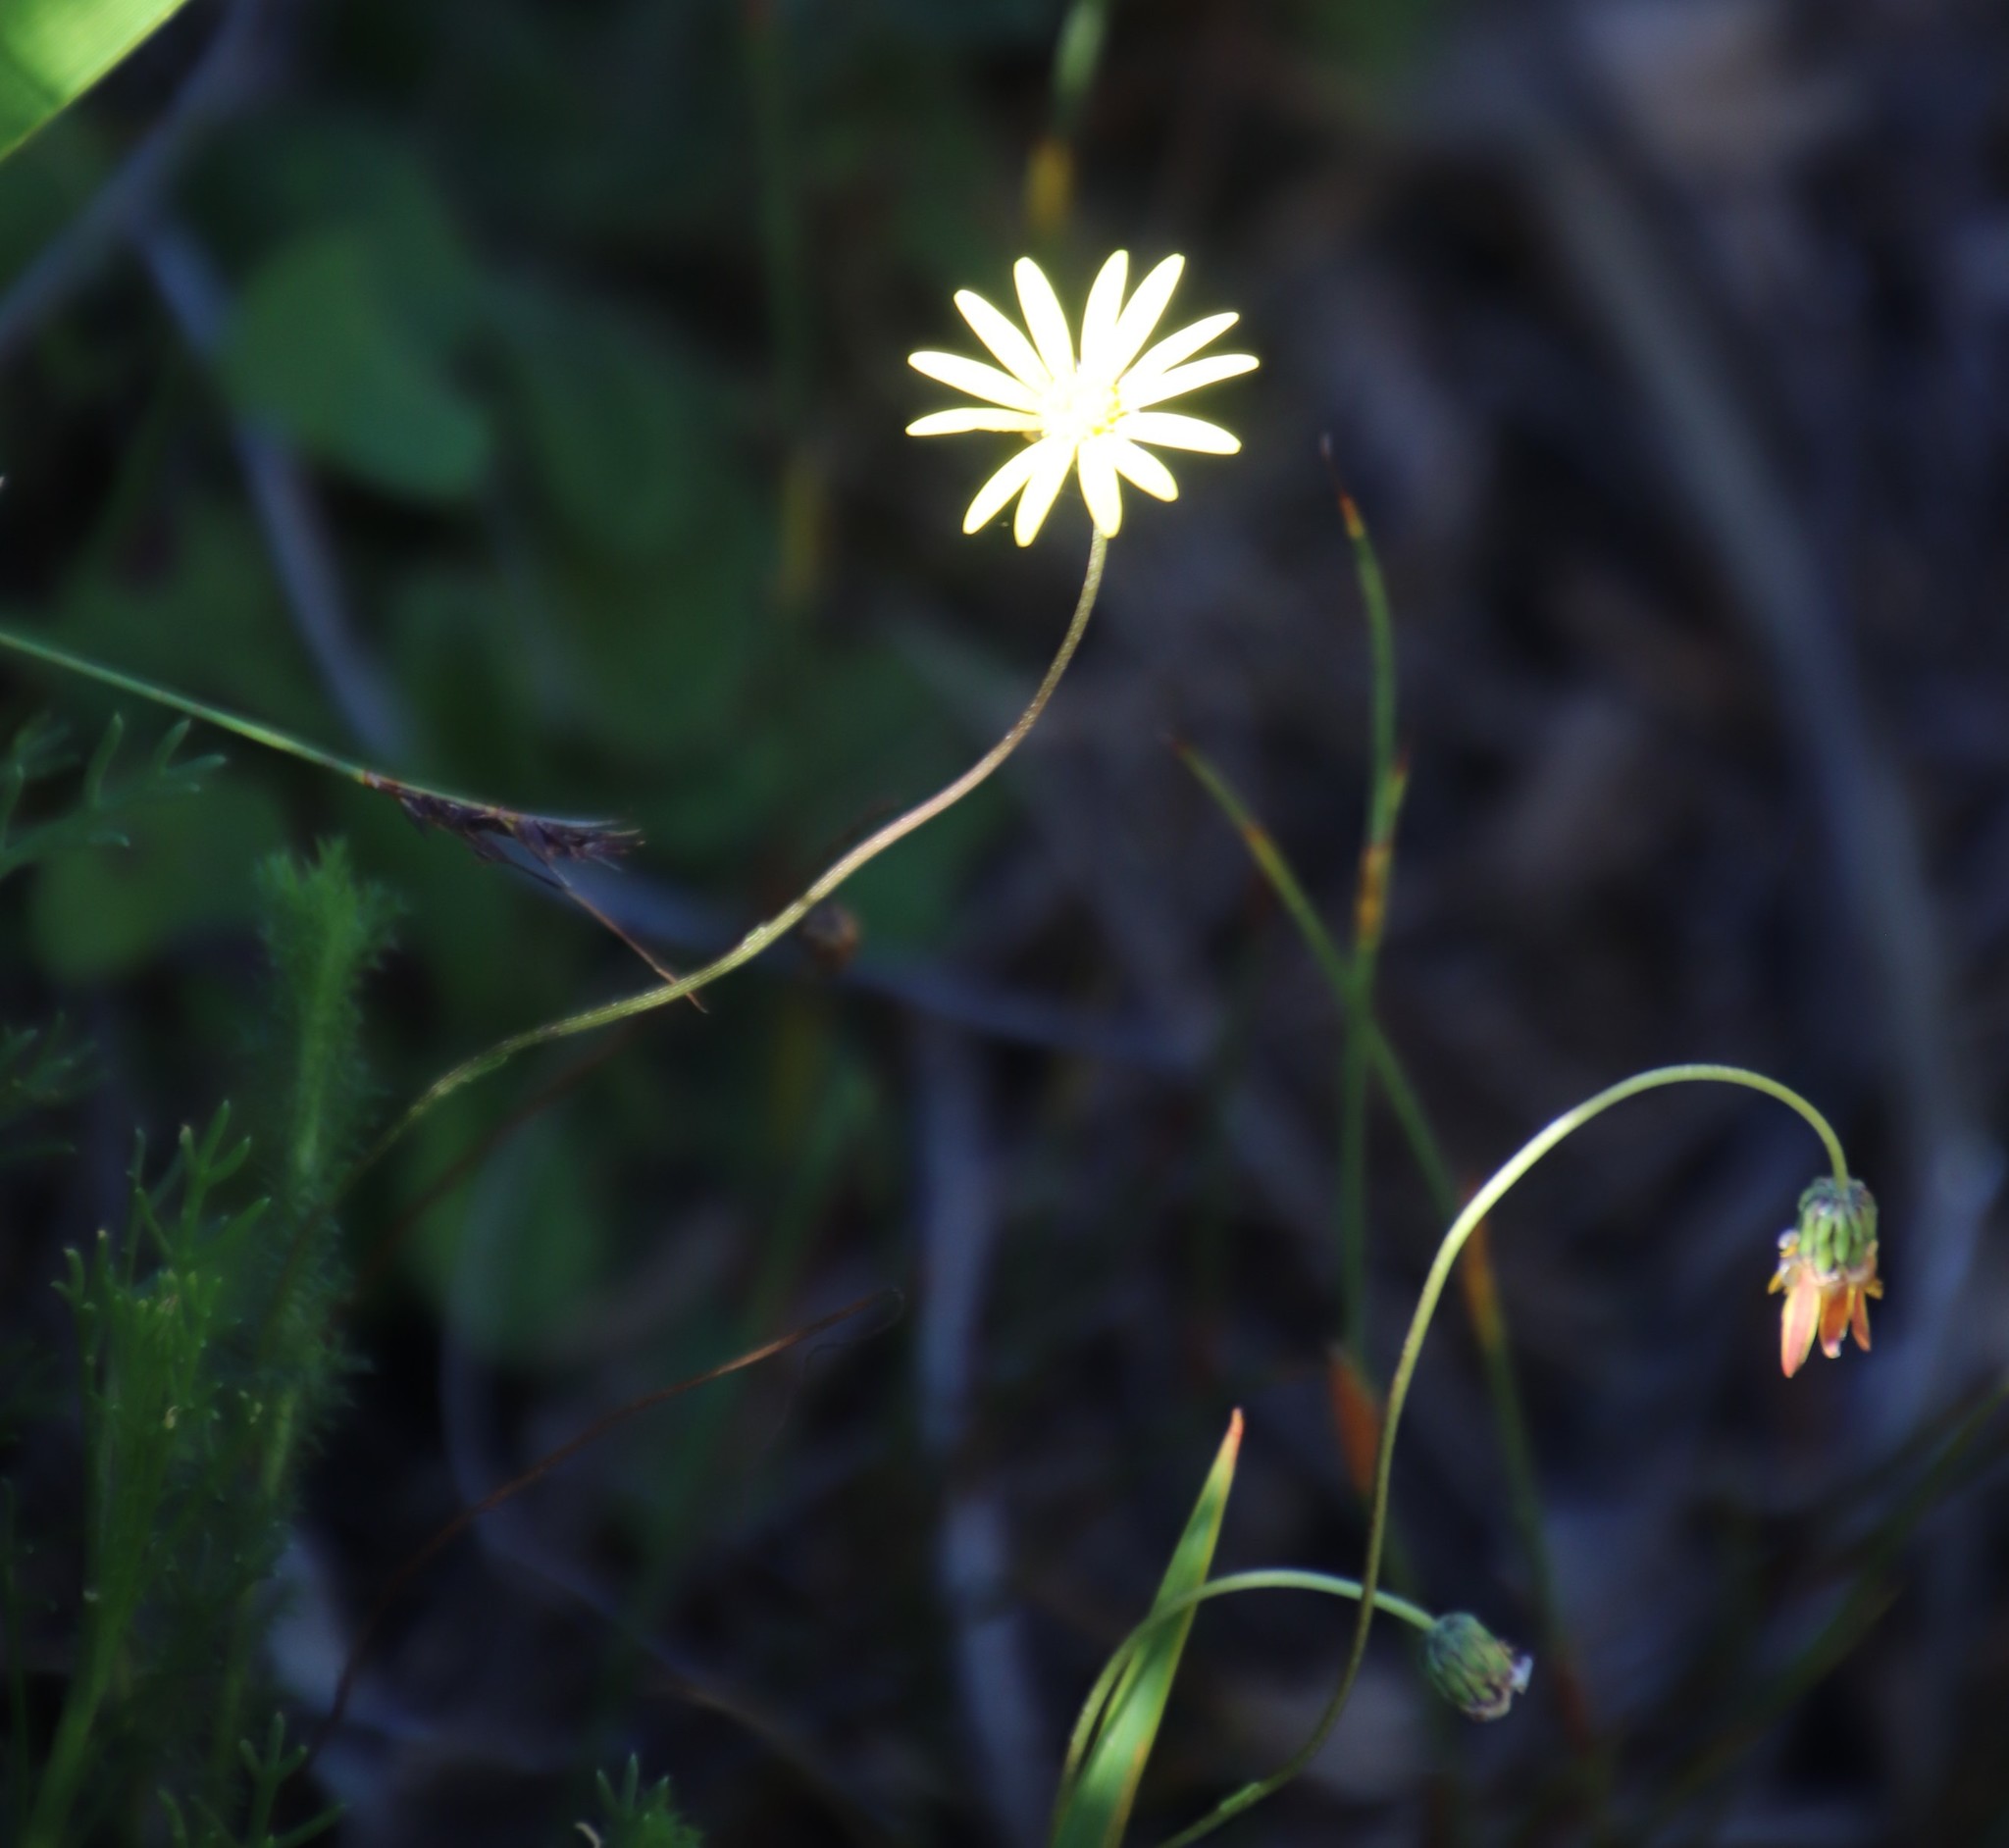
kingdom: Plantae
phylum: Tracheophyta
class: Magnoliopsida
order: Asterales
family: Asteraceae
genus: Ursinia
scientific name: Ursinia dentata
